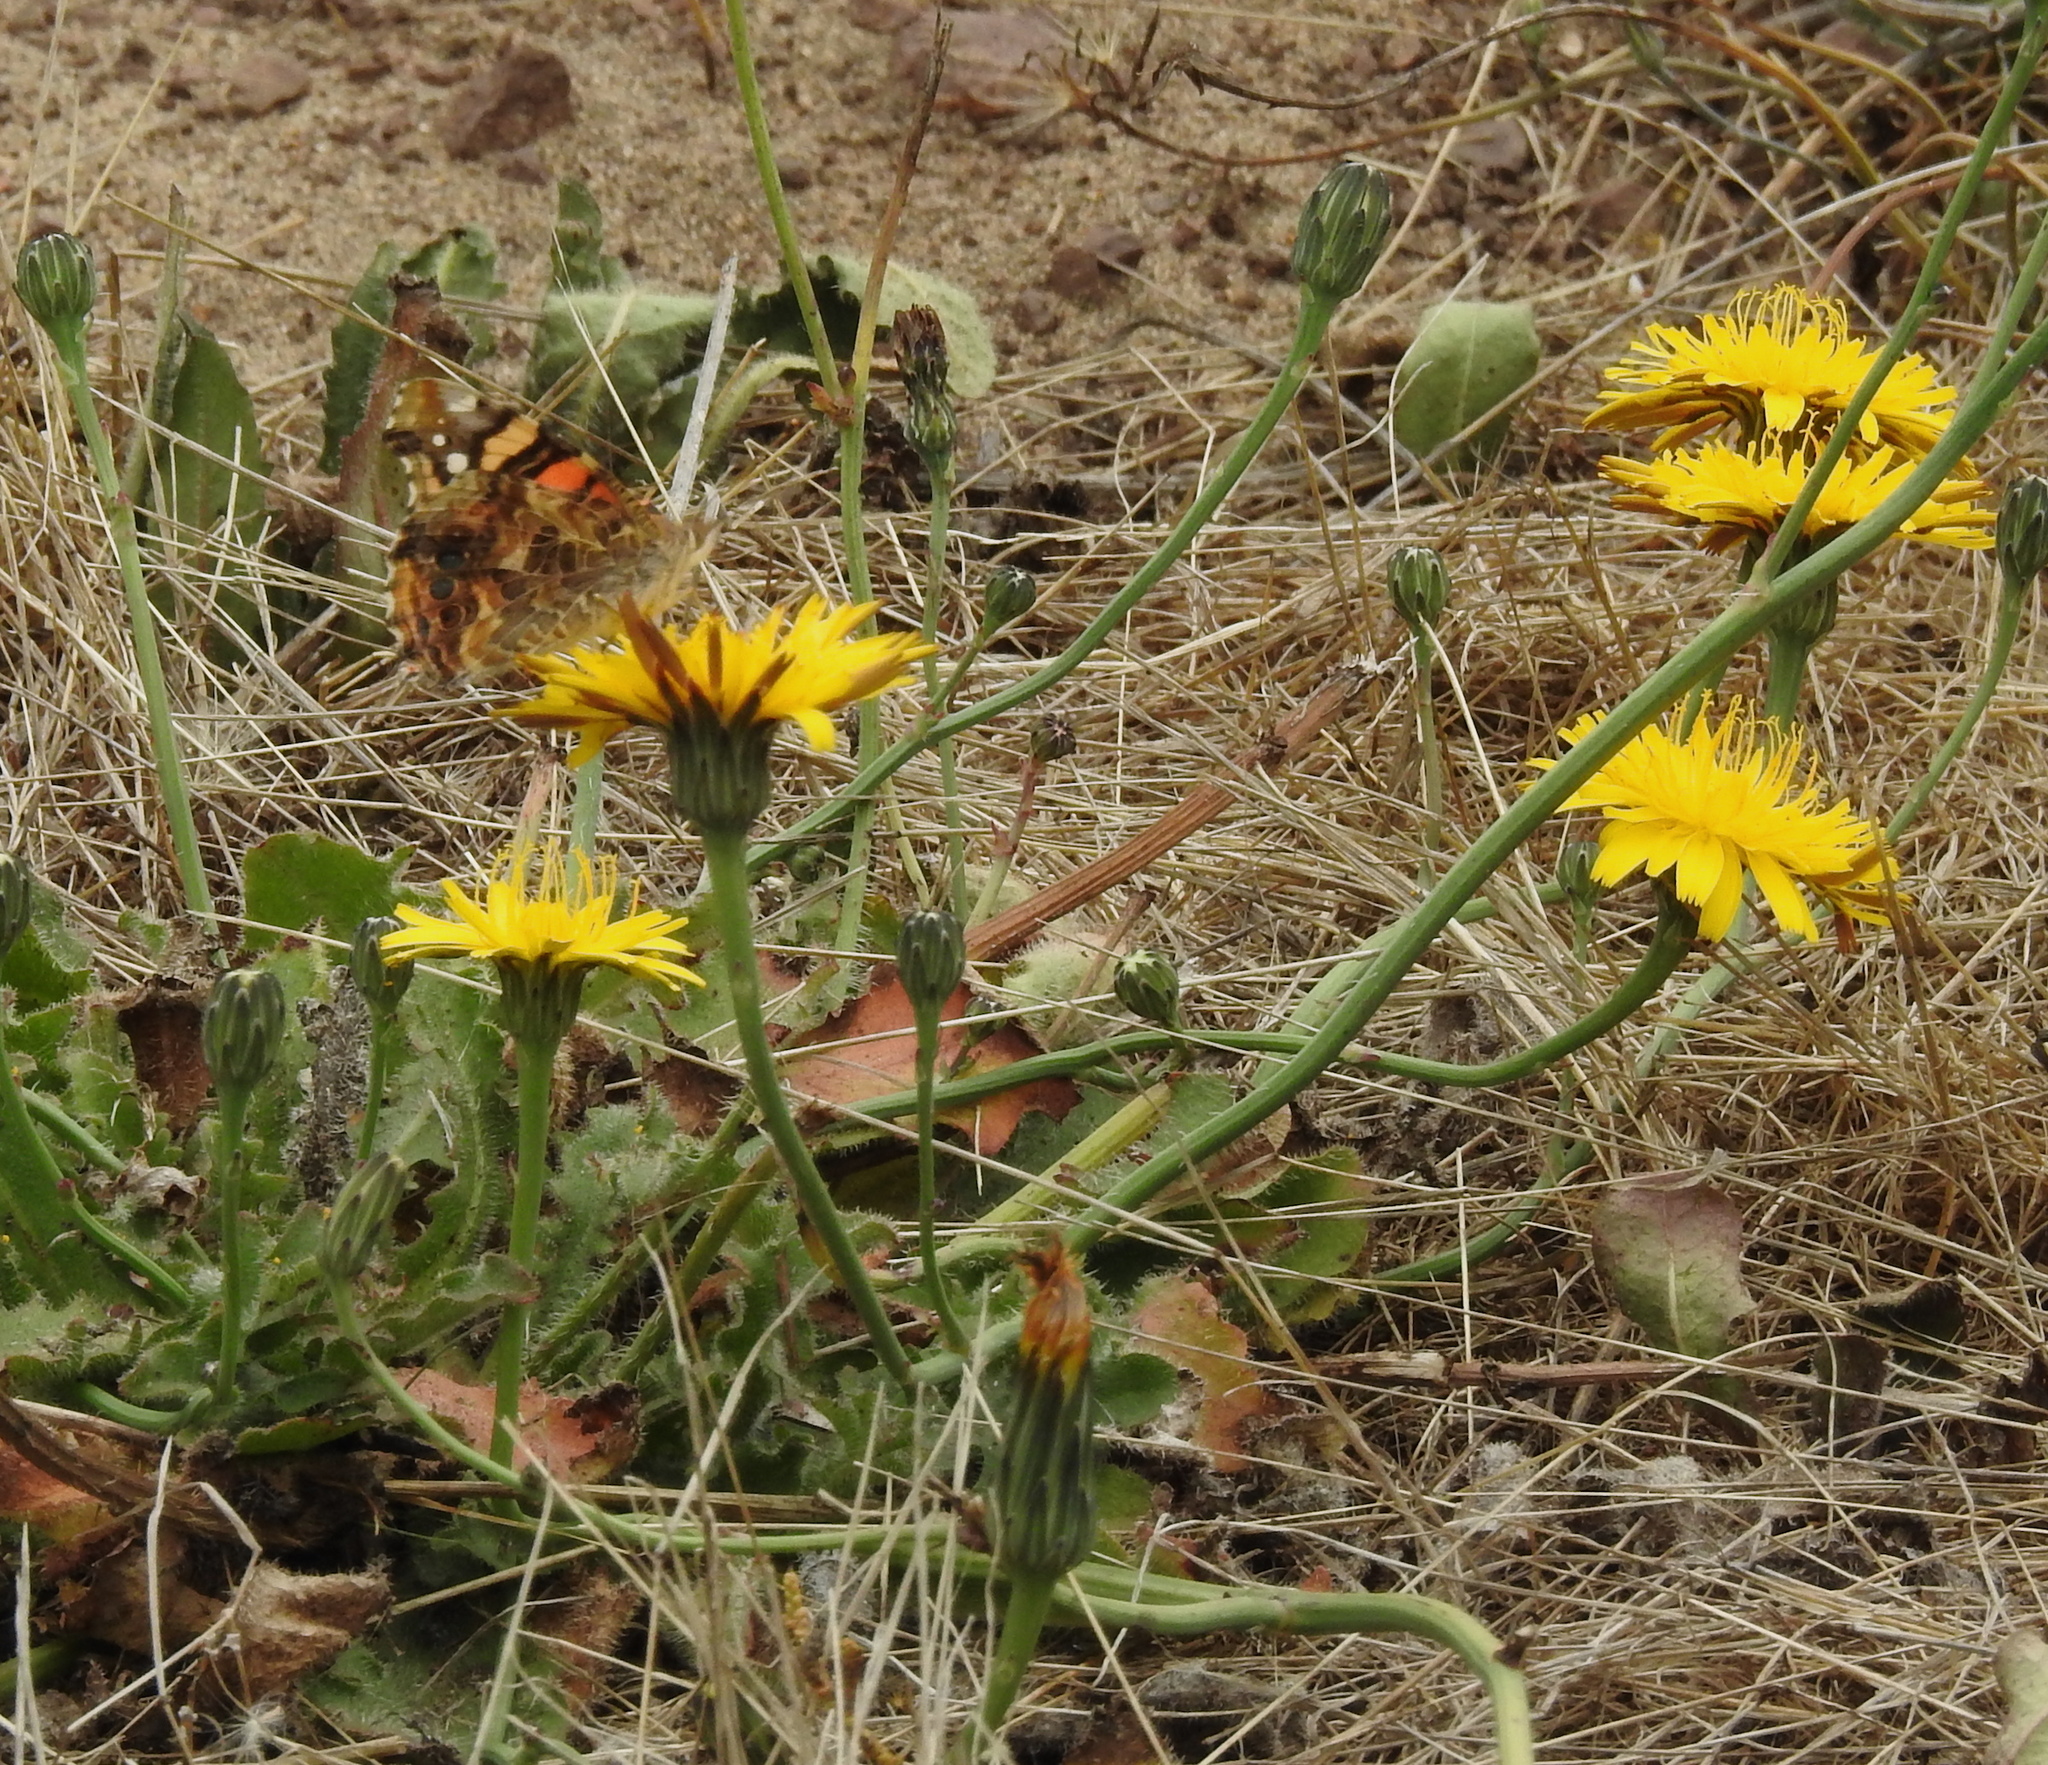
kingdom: Animalia
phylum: Arthropoda
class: Insecta
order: Lepidoptera
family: Nymphalidae
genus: Vanessa
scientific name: Vanessa annabella
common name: West coast lady
